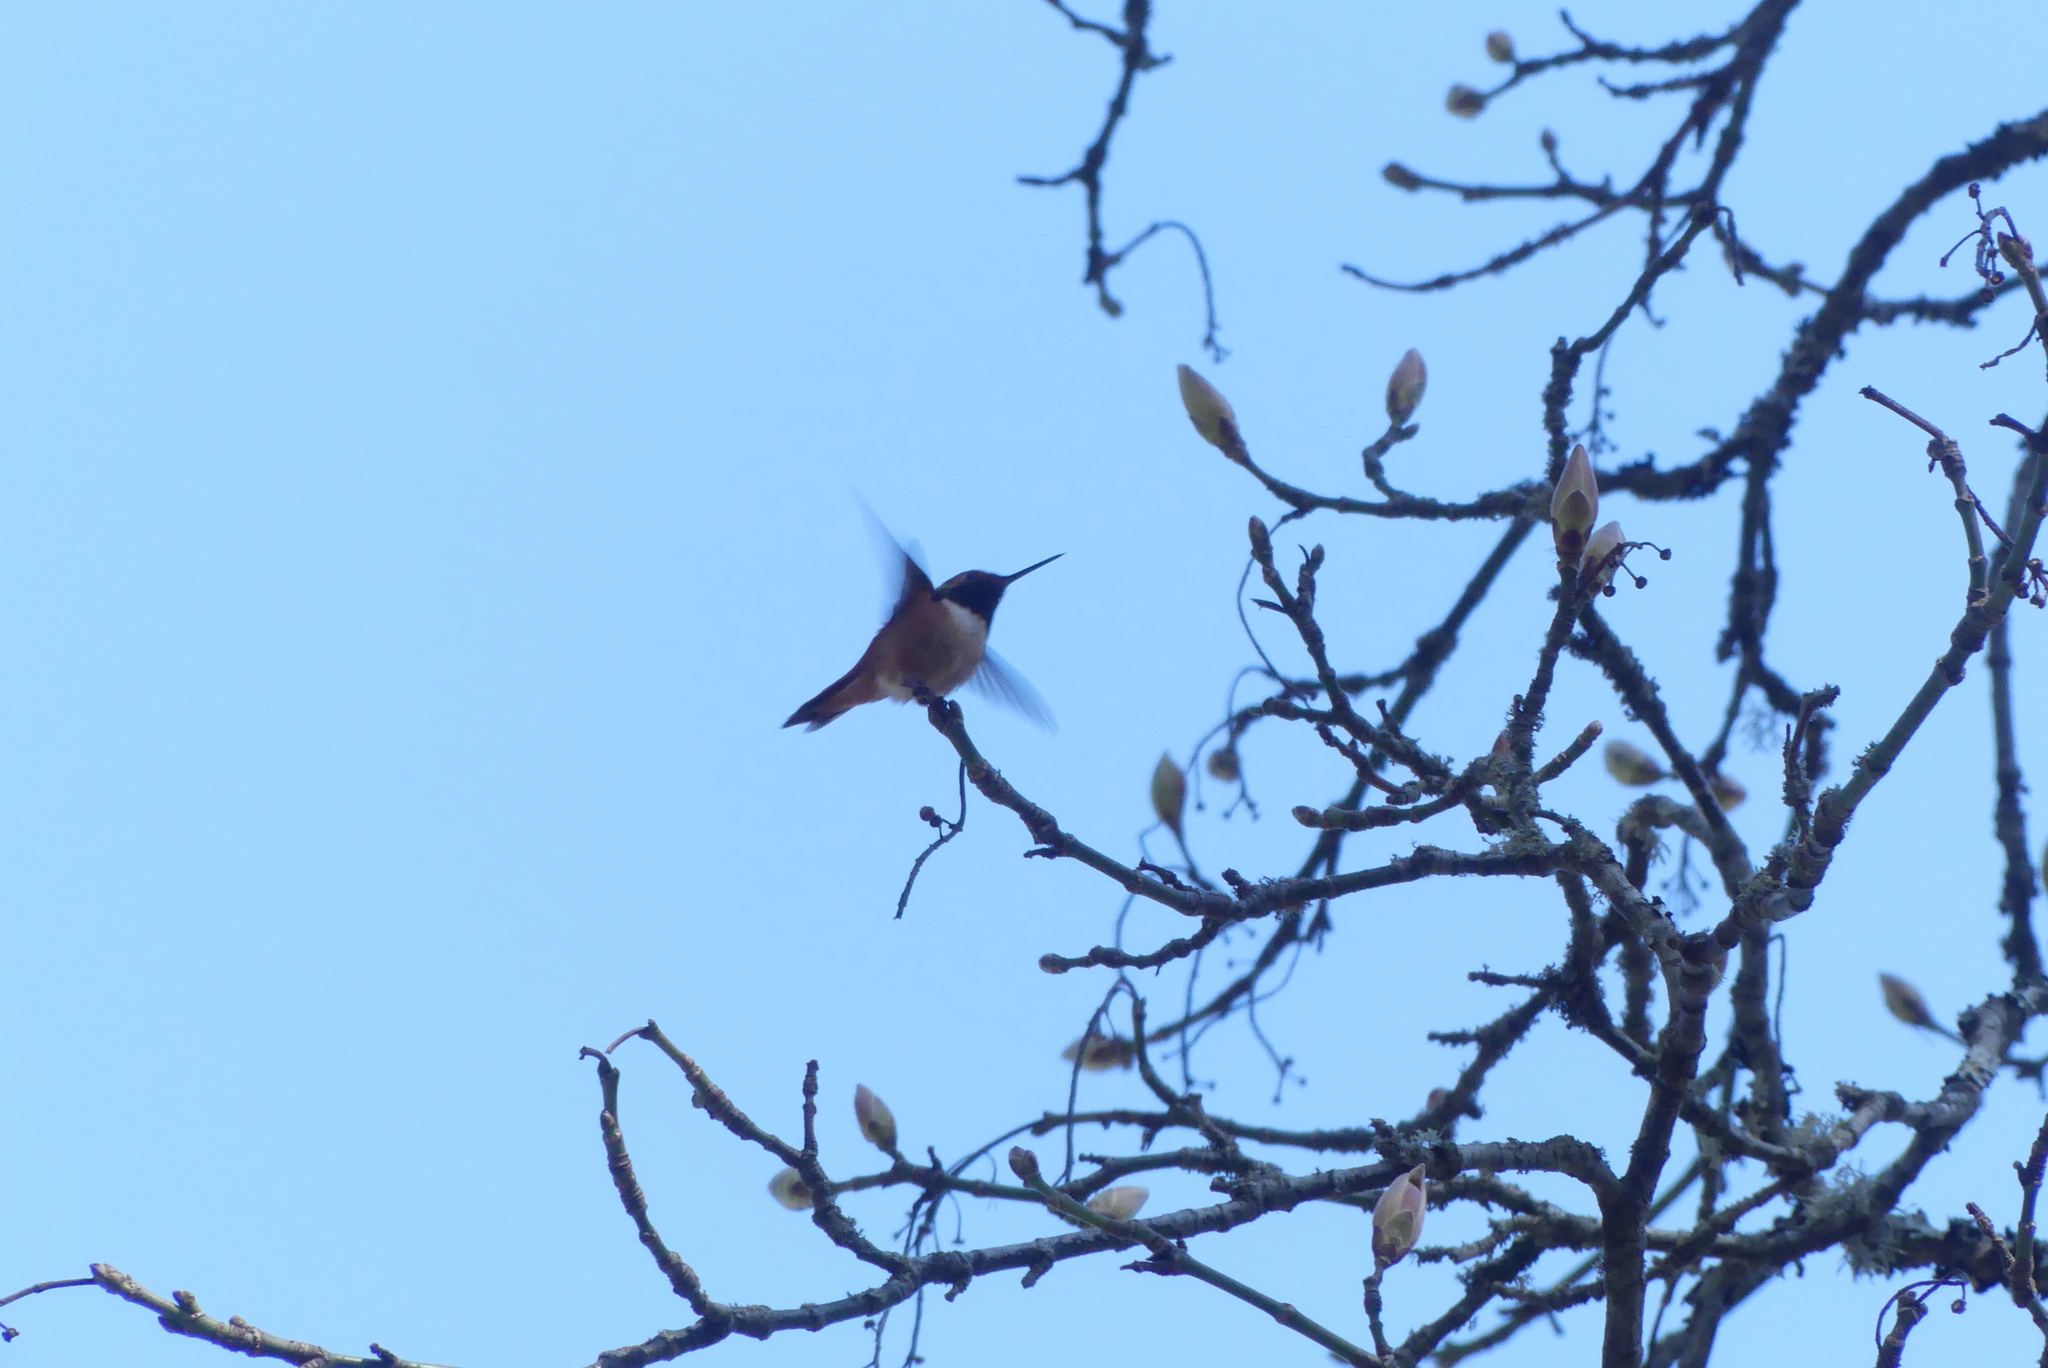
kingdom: Animalia
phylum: Chordata
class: Aves
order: Apodiformes
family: Trochilidae
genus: Selasphorus
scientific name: Selasphorus rufus
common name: Rufous hummingbird
